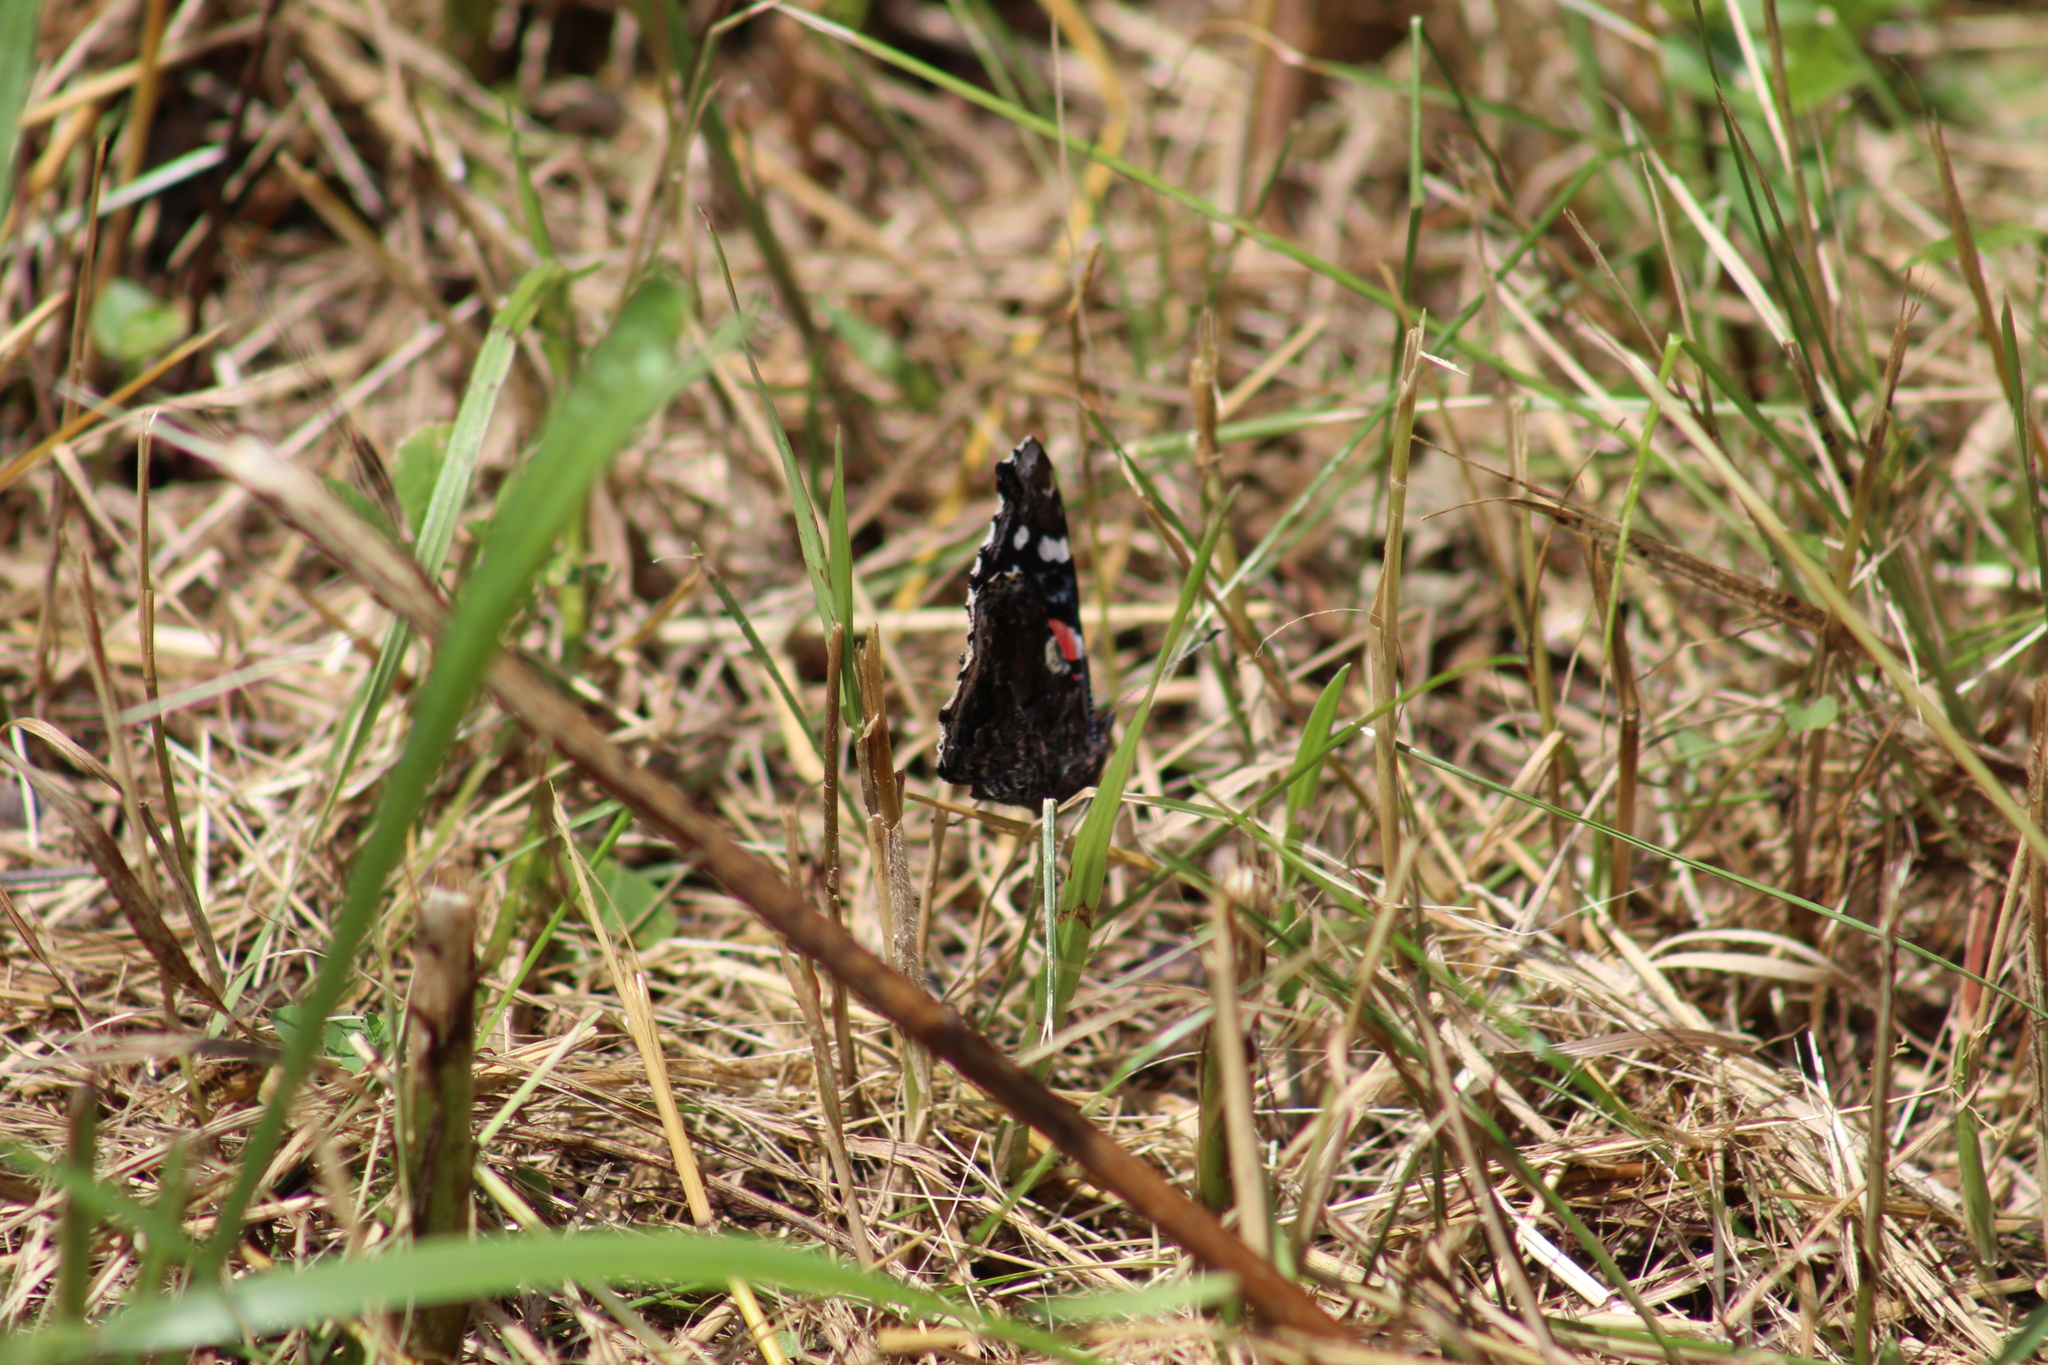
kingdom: Animalia
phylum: Arthropoda
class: Insecta
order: Lepidoptera
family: Nymphalidae
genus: Vanessa
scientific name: Vanessa atalanta
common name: Red admiral
